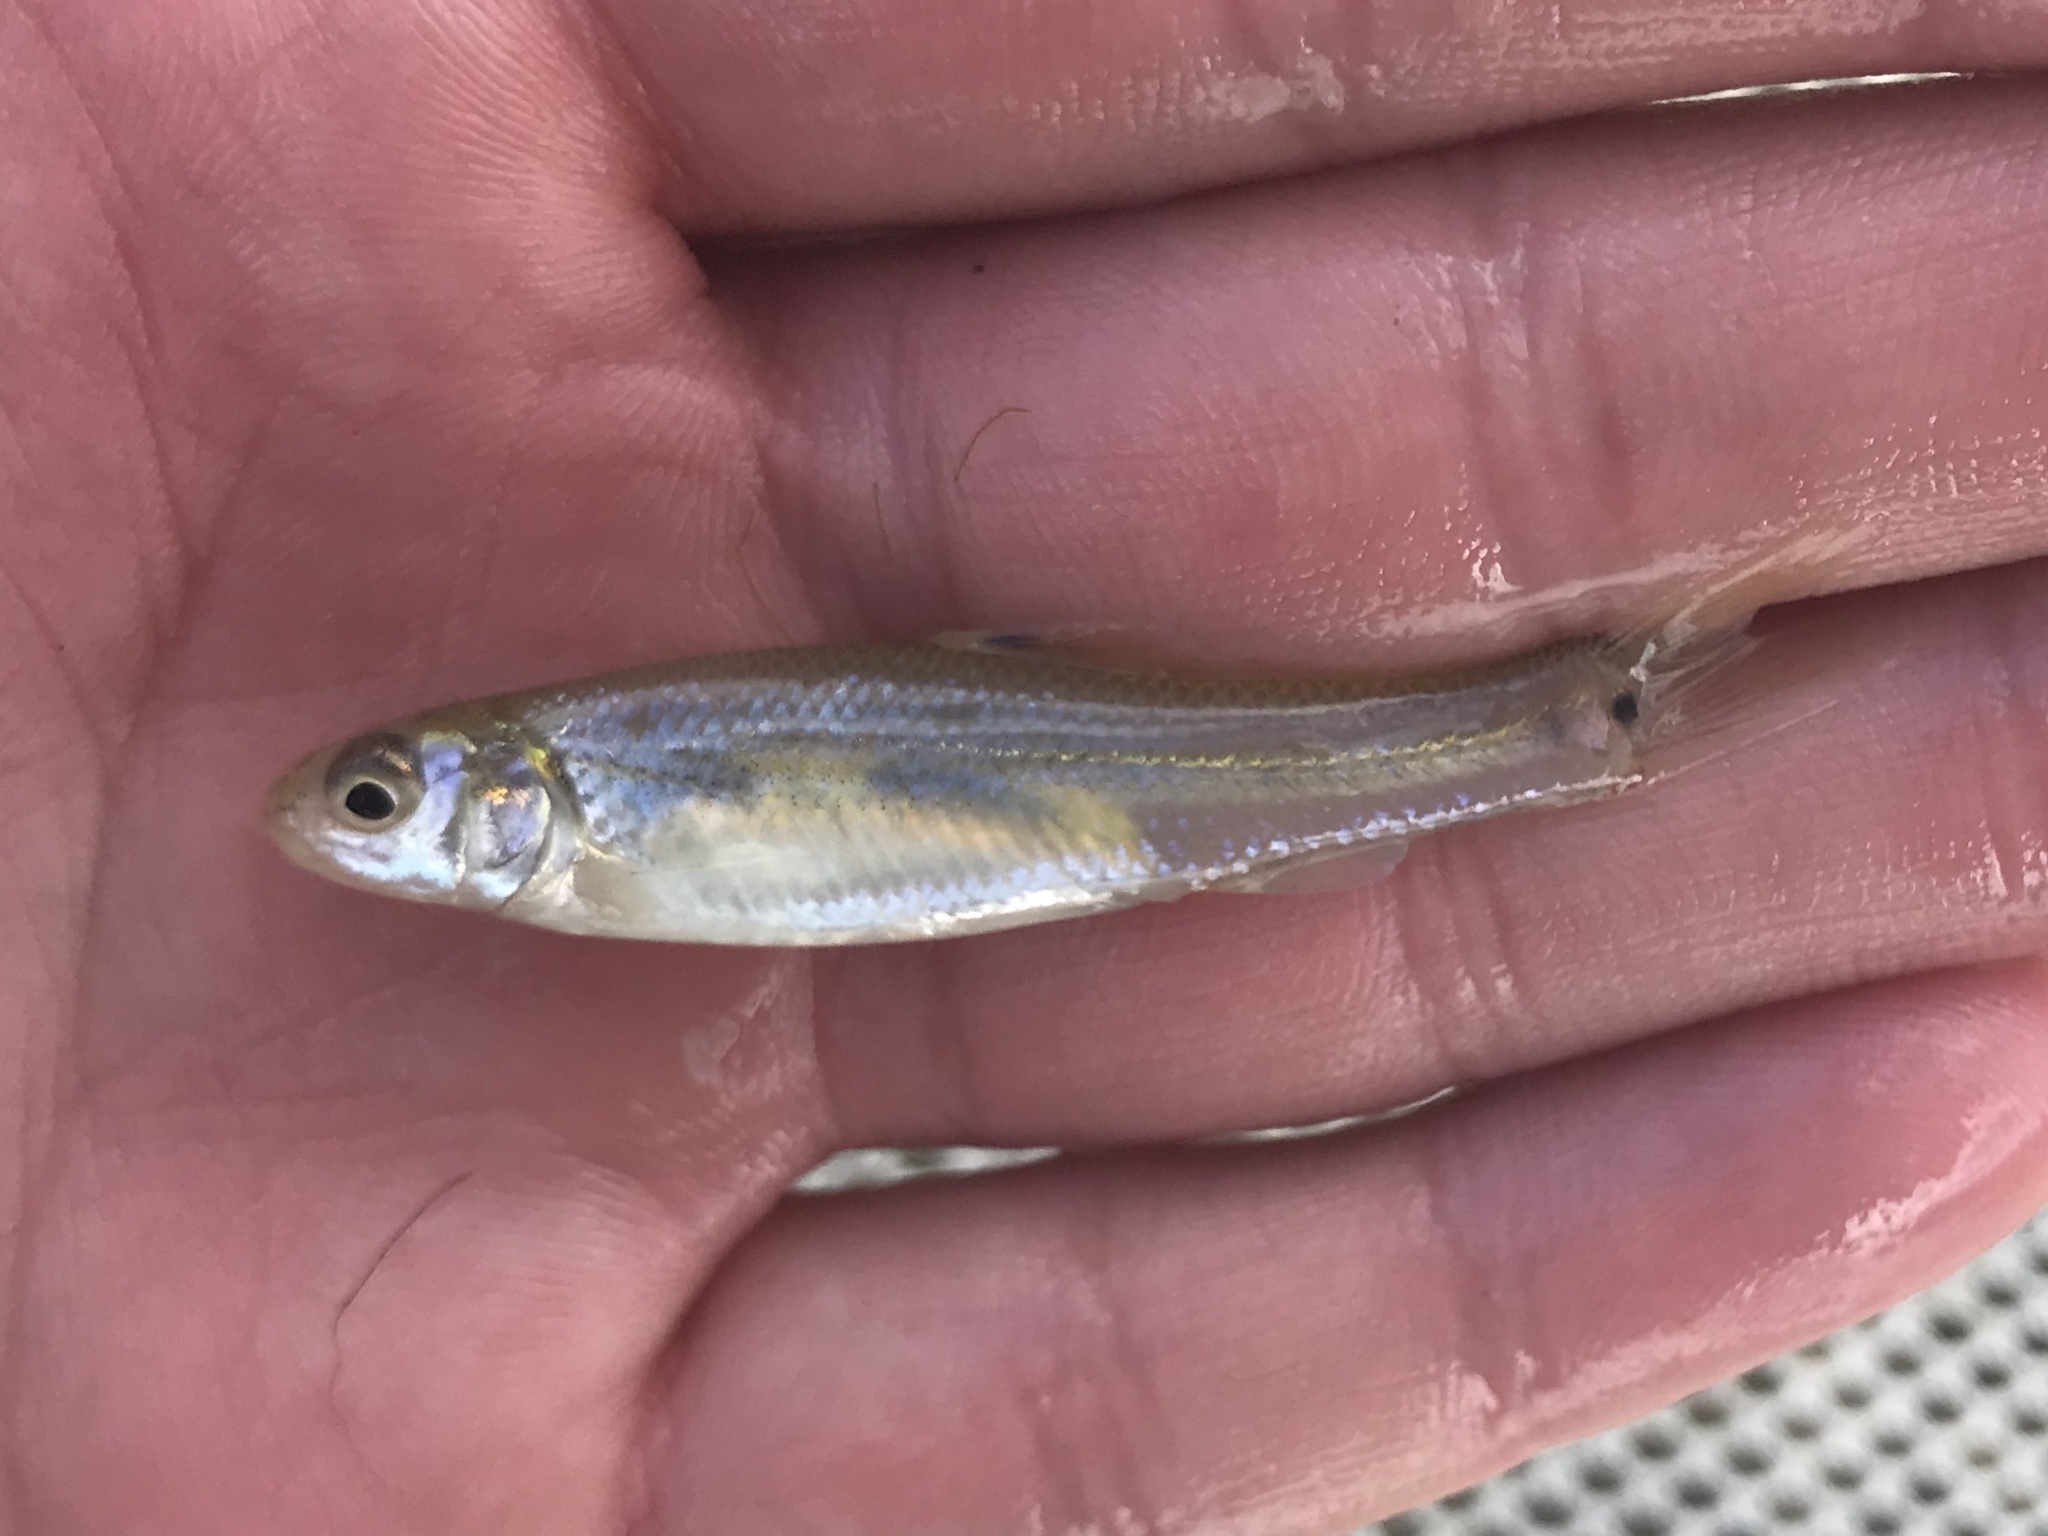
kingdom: Animalia
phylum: Chordata
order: Cypriniformes
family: Cyprinidae
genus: Pimephales
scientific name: Pimephales vigilax
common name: Bullhead minnow
